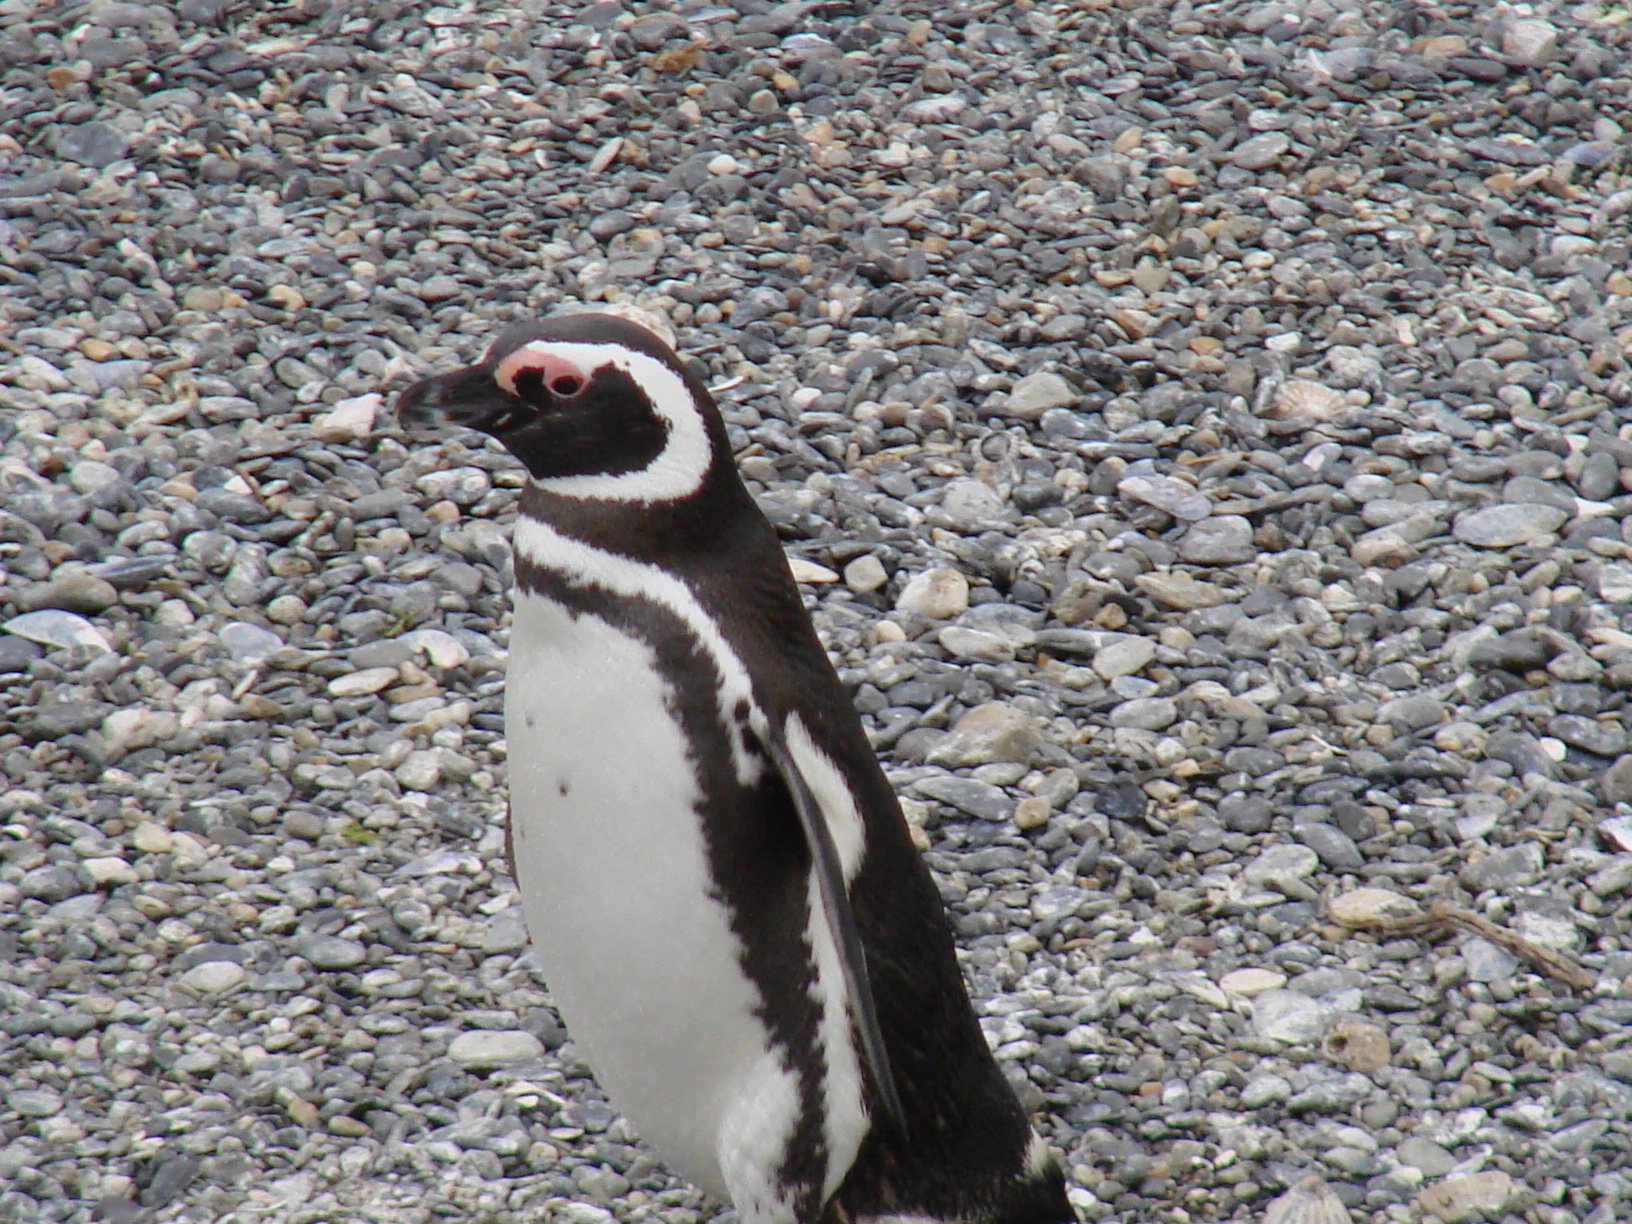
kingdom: Animalia
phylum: Chordata
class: Aves
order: Sphenisciformes
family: Spheniscidae
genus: Spheniscus
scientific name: Spheniscus magellanicus
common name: Magellanic penguin
